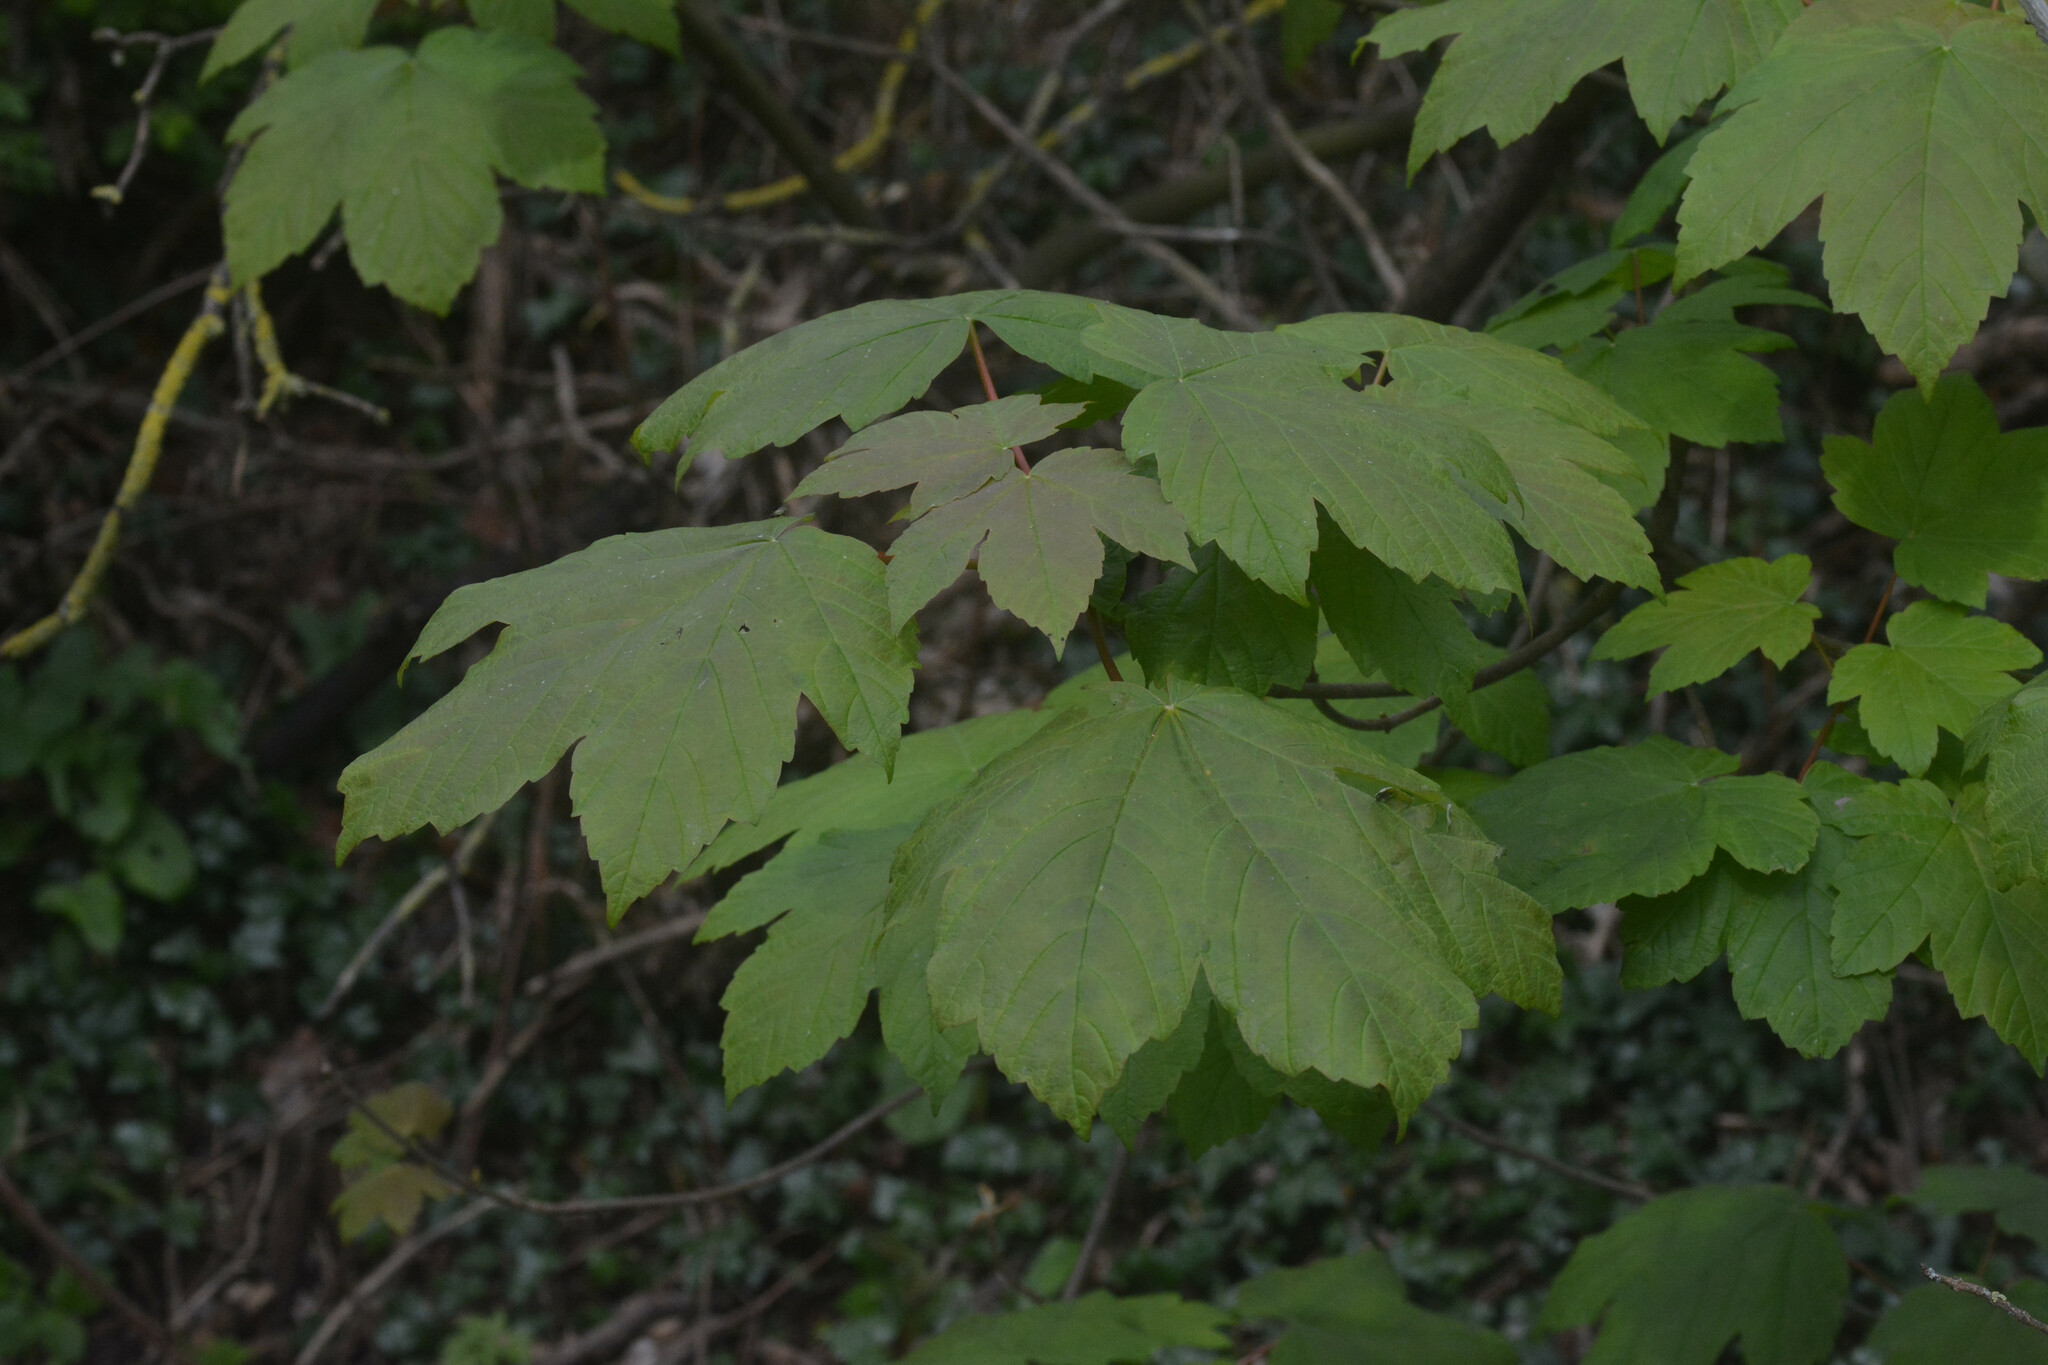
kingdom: Plantae
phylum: Tracheophyta
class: Magnoliopsida
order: Sapindales
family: Sapindaceae
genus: Acer
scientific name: Acer pseudoplatanus
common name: Sycamore
